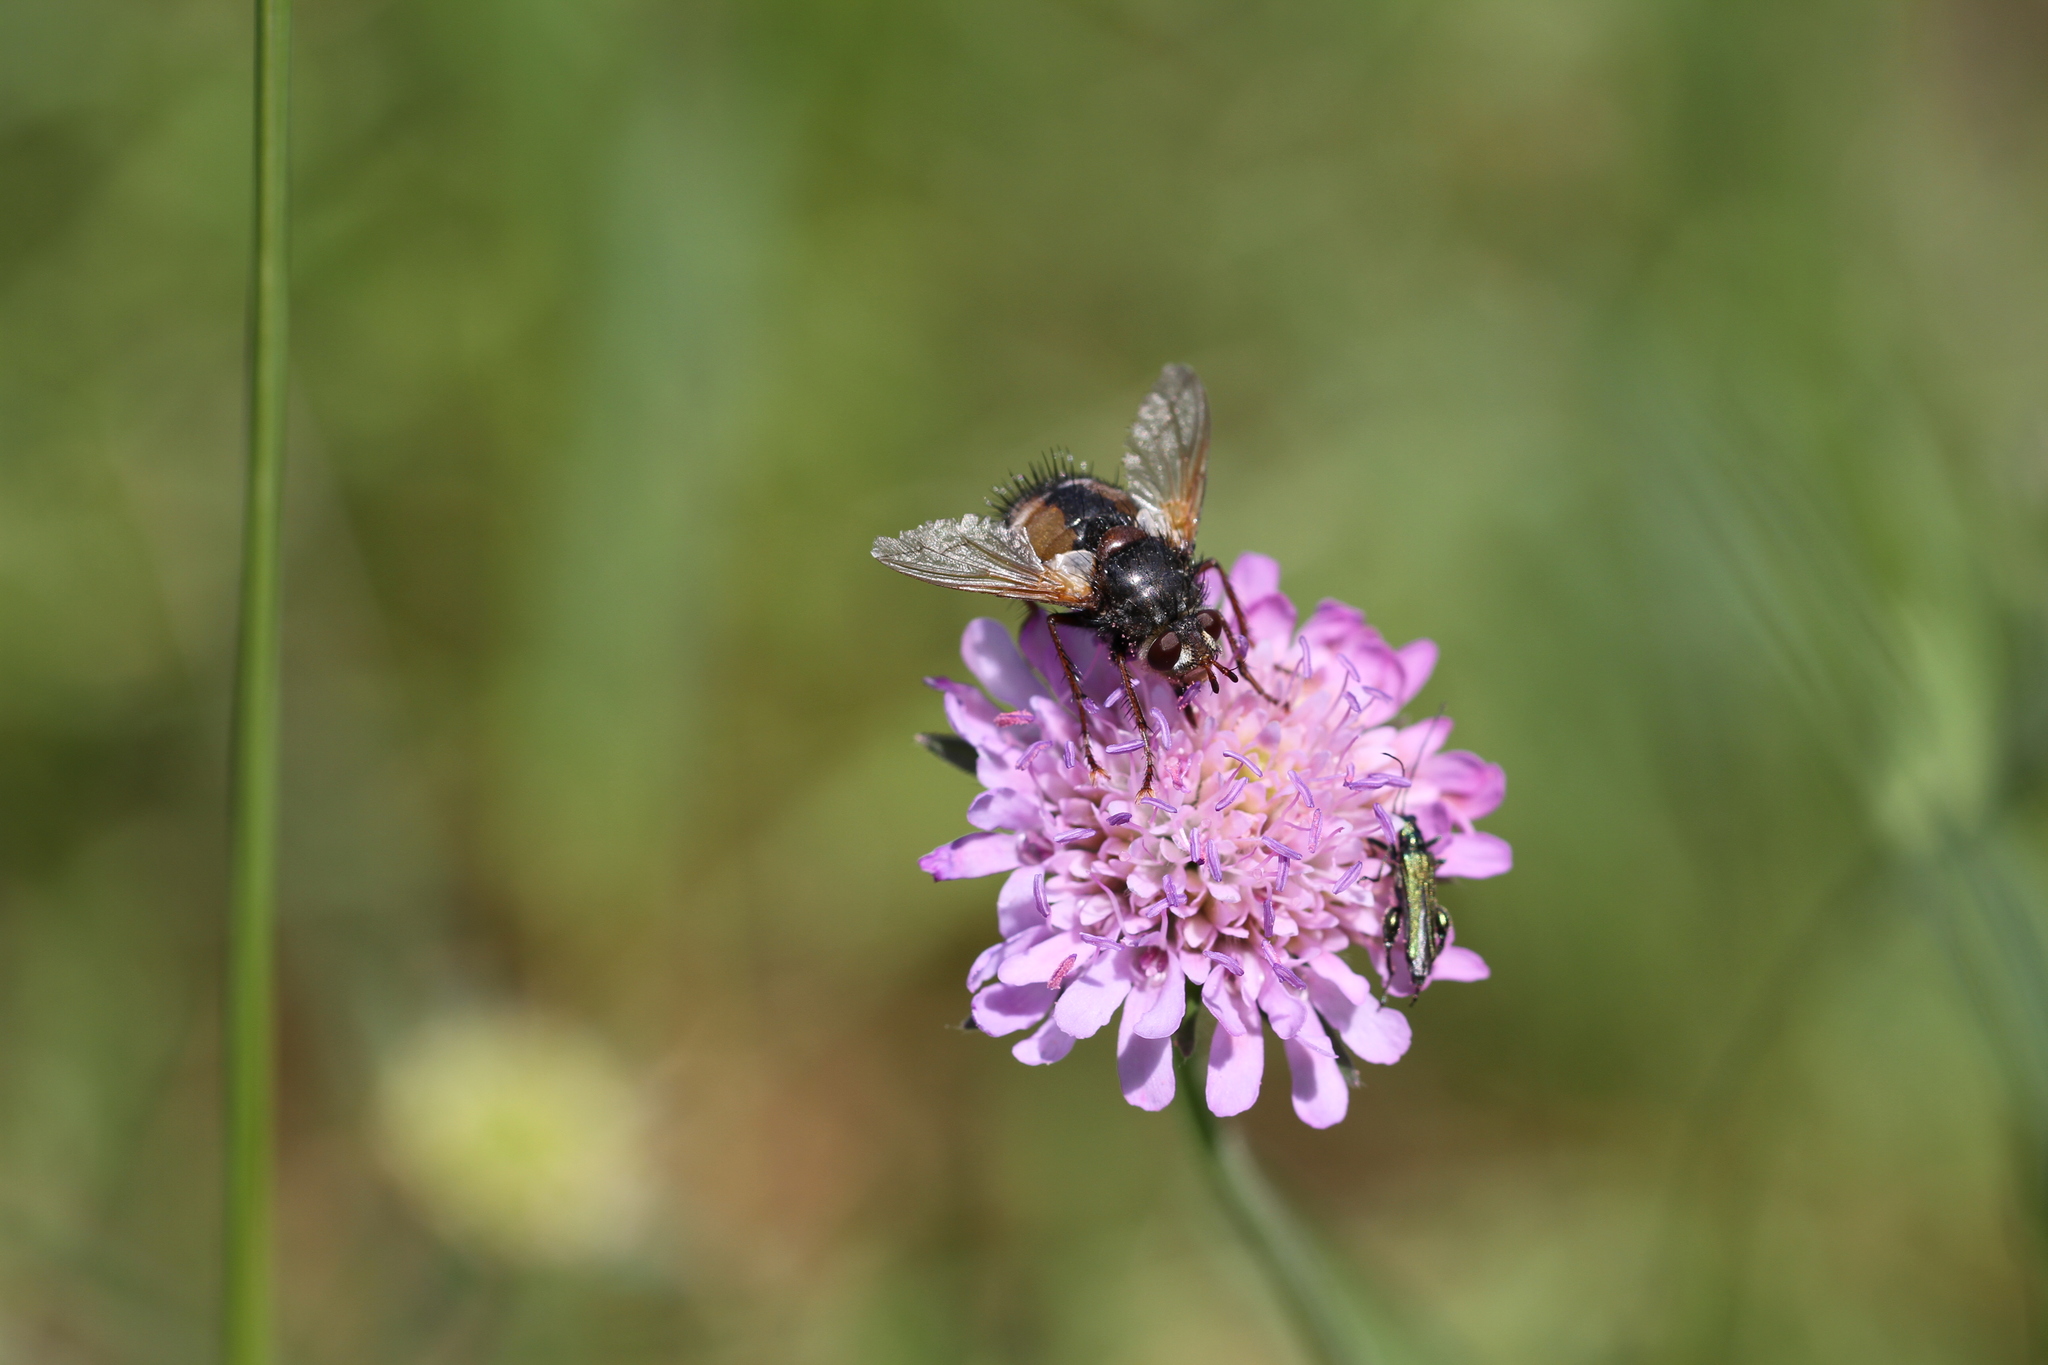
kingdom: Animalia
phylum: Arthropoda
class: Insecta
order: Diptera
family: Tachinidae
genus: Tachina
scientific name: Tachina fera
